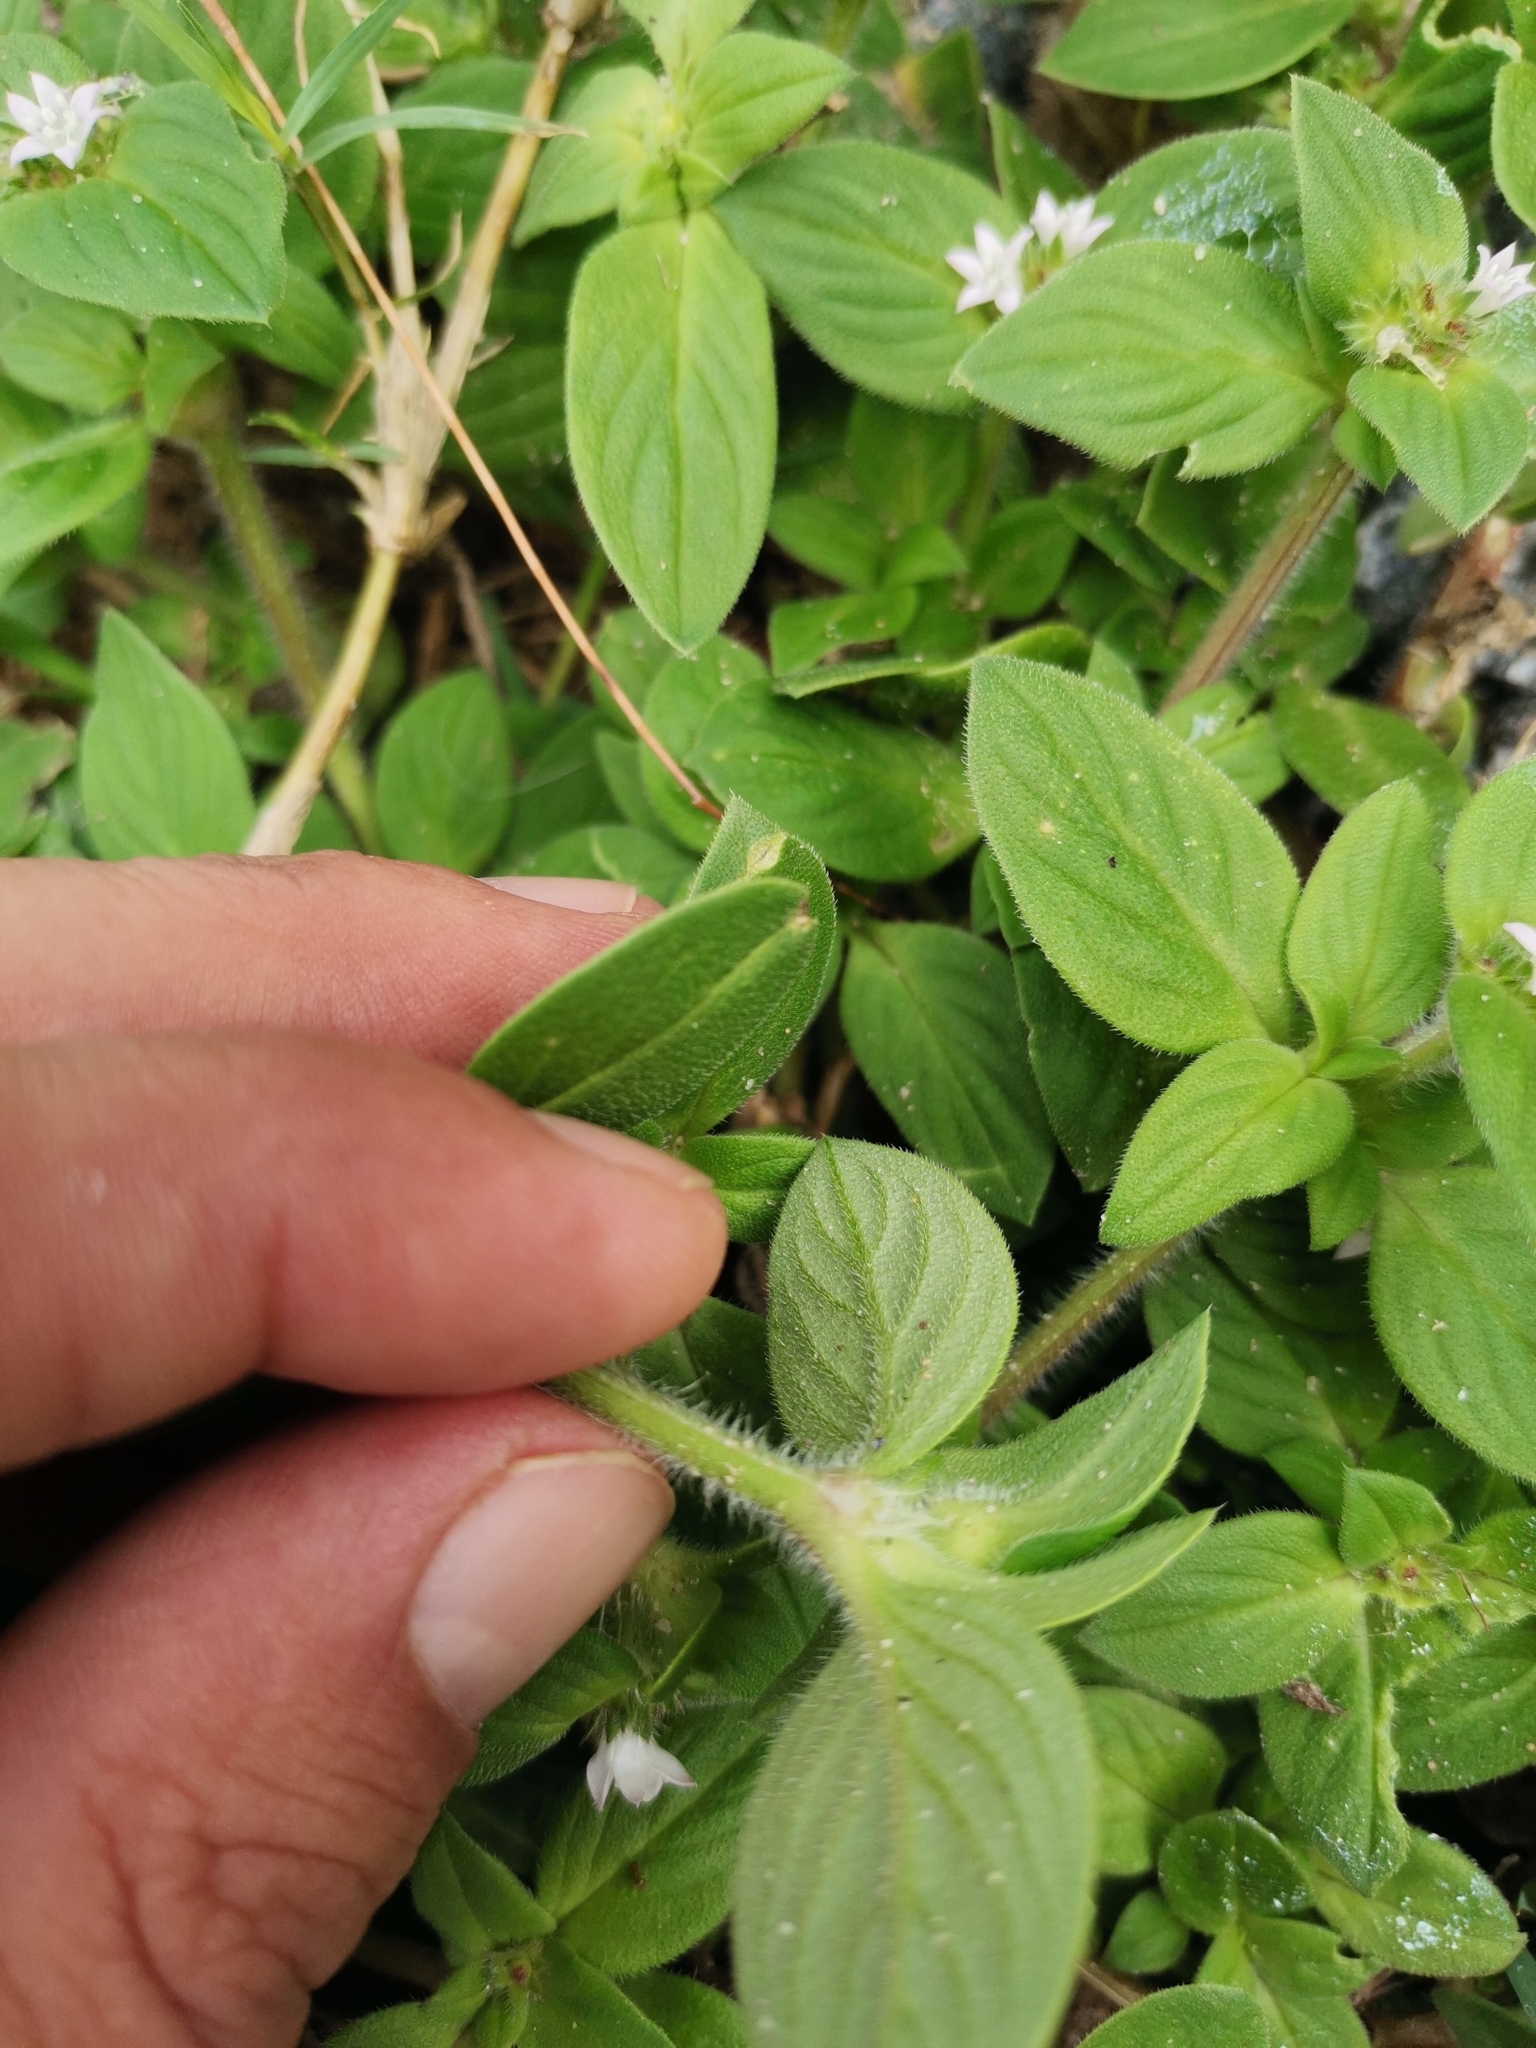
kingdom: Plantae
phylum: Tracheophyta
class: Magnoliopsida
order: Gentianales
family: Rubiaceae
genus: Richardia
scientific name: Richardia brasiliensis
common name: Tropical mexican clover
